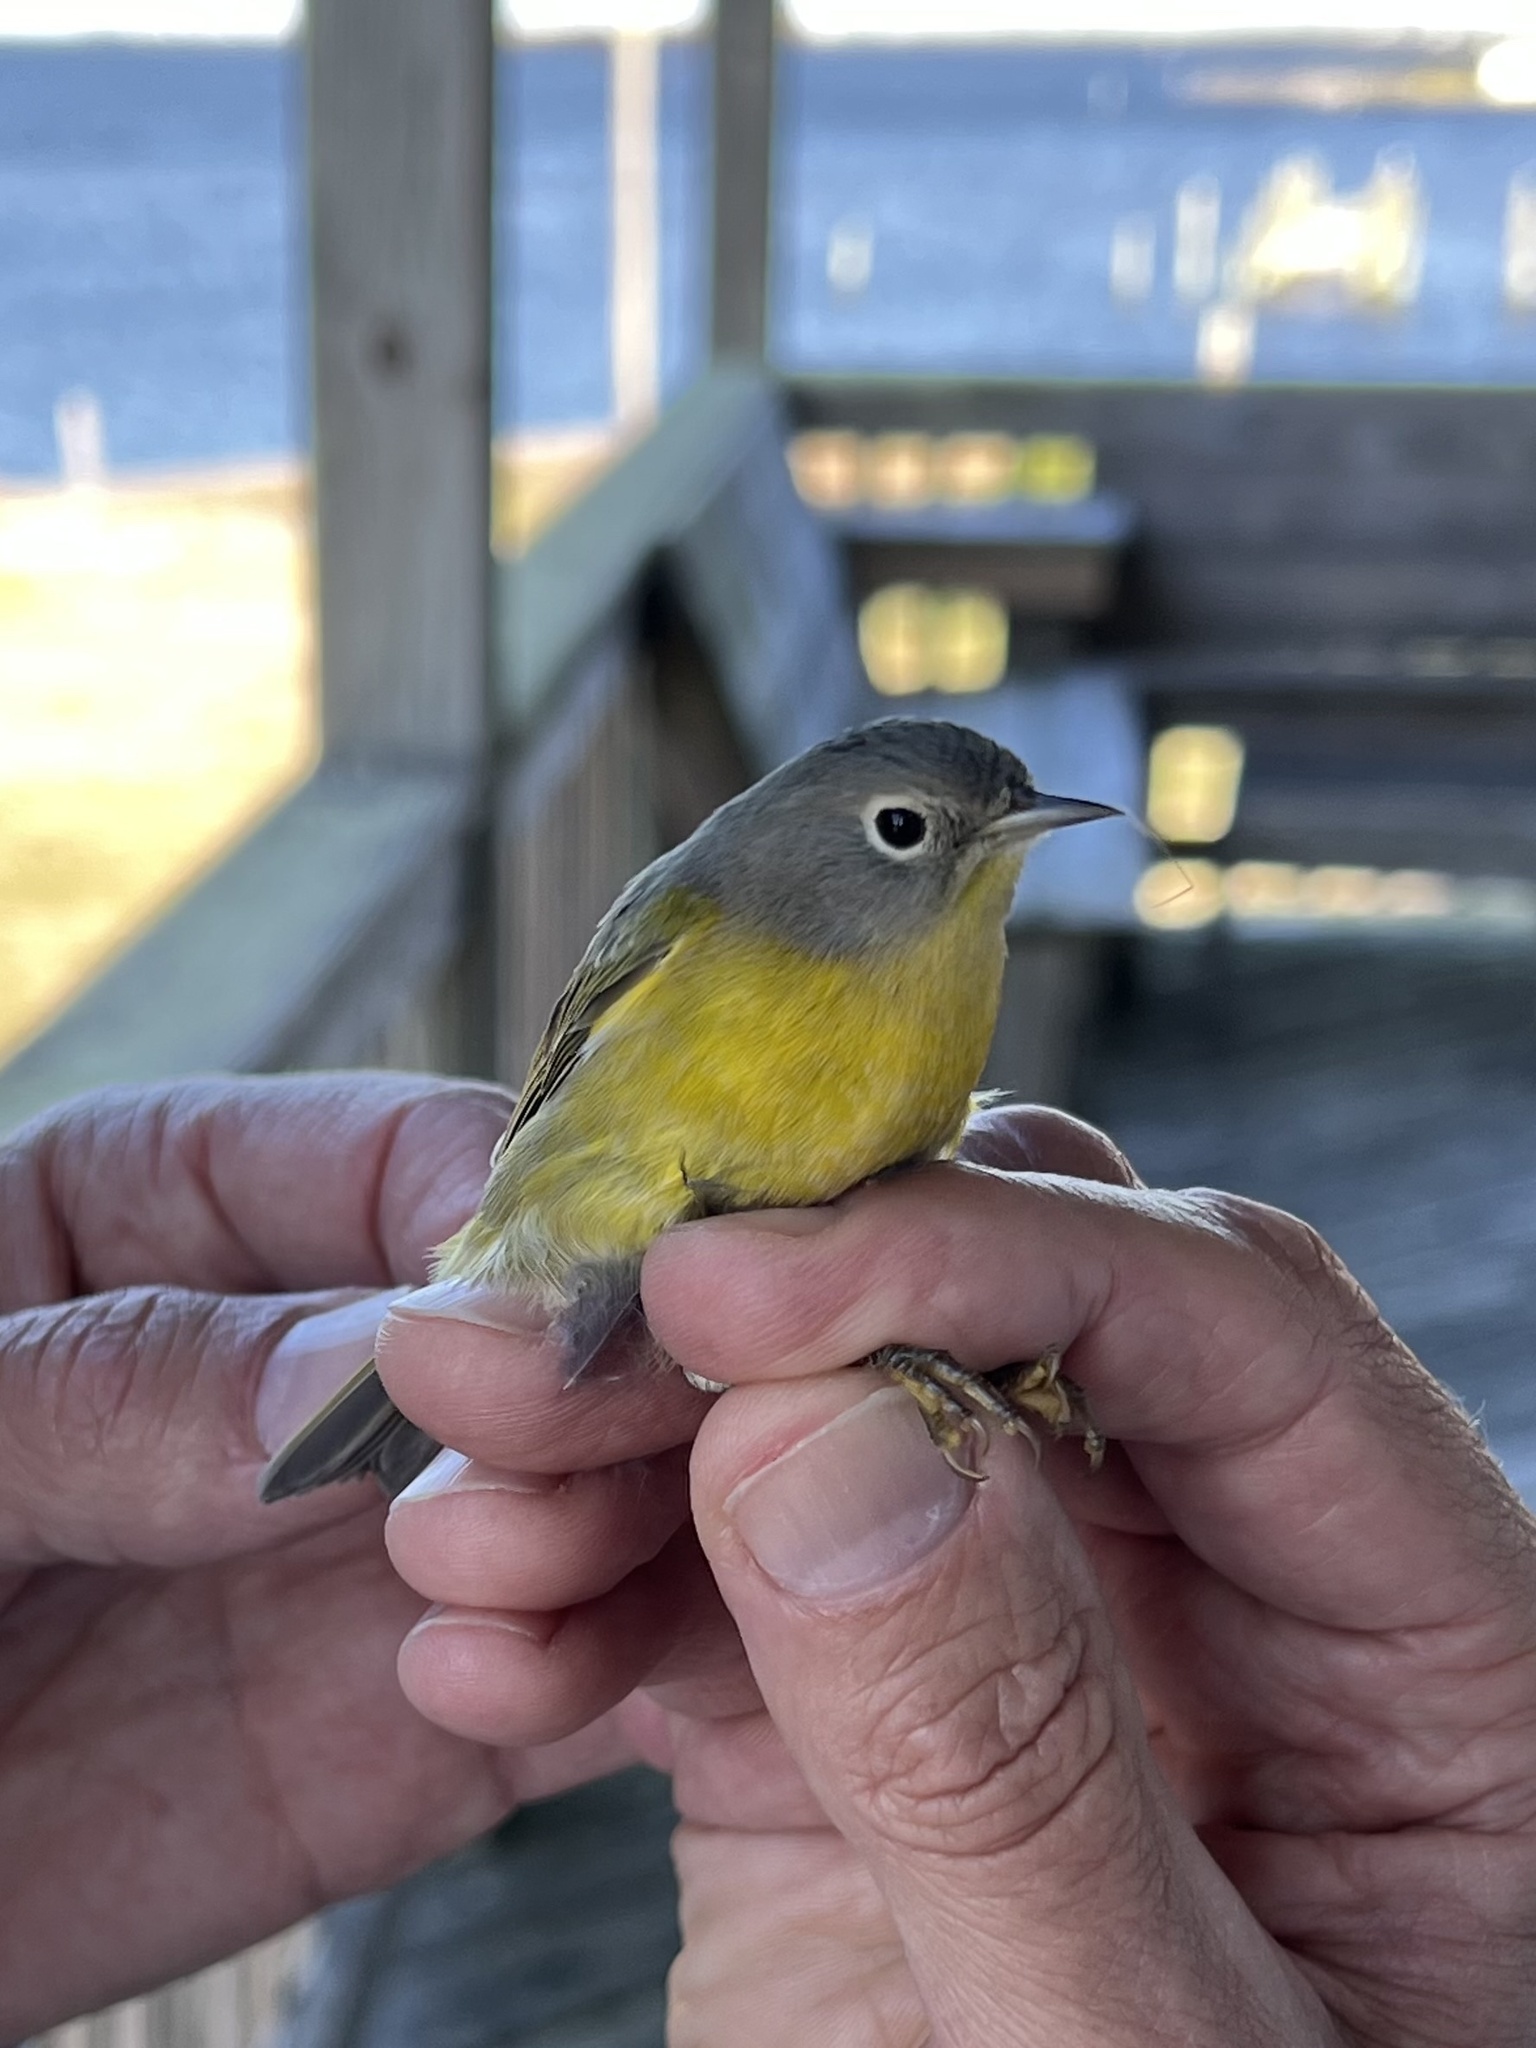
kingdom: Animalia
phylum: Chordata
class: Aves
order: Passeriformes
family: Parulidae
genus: Leiothlypis
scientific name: Leiothlypis ruficapilla
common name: Nashville warbler
